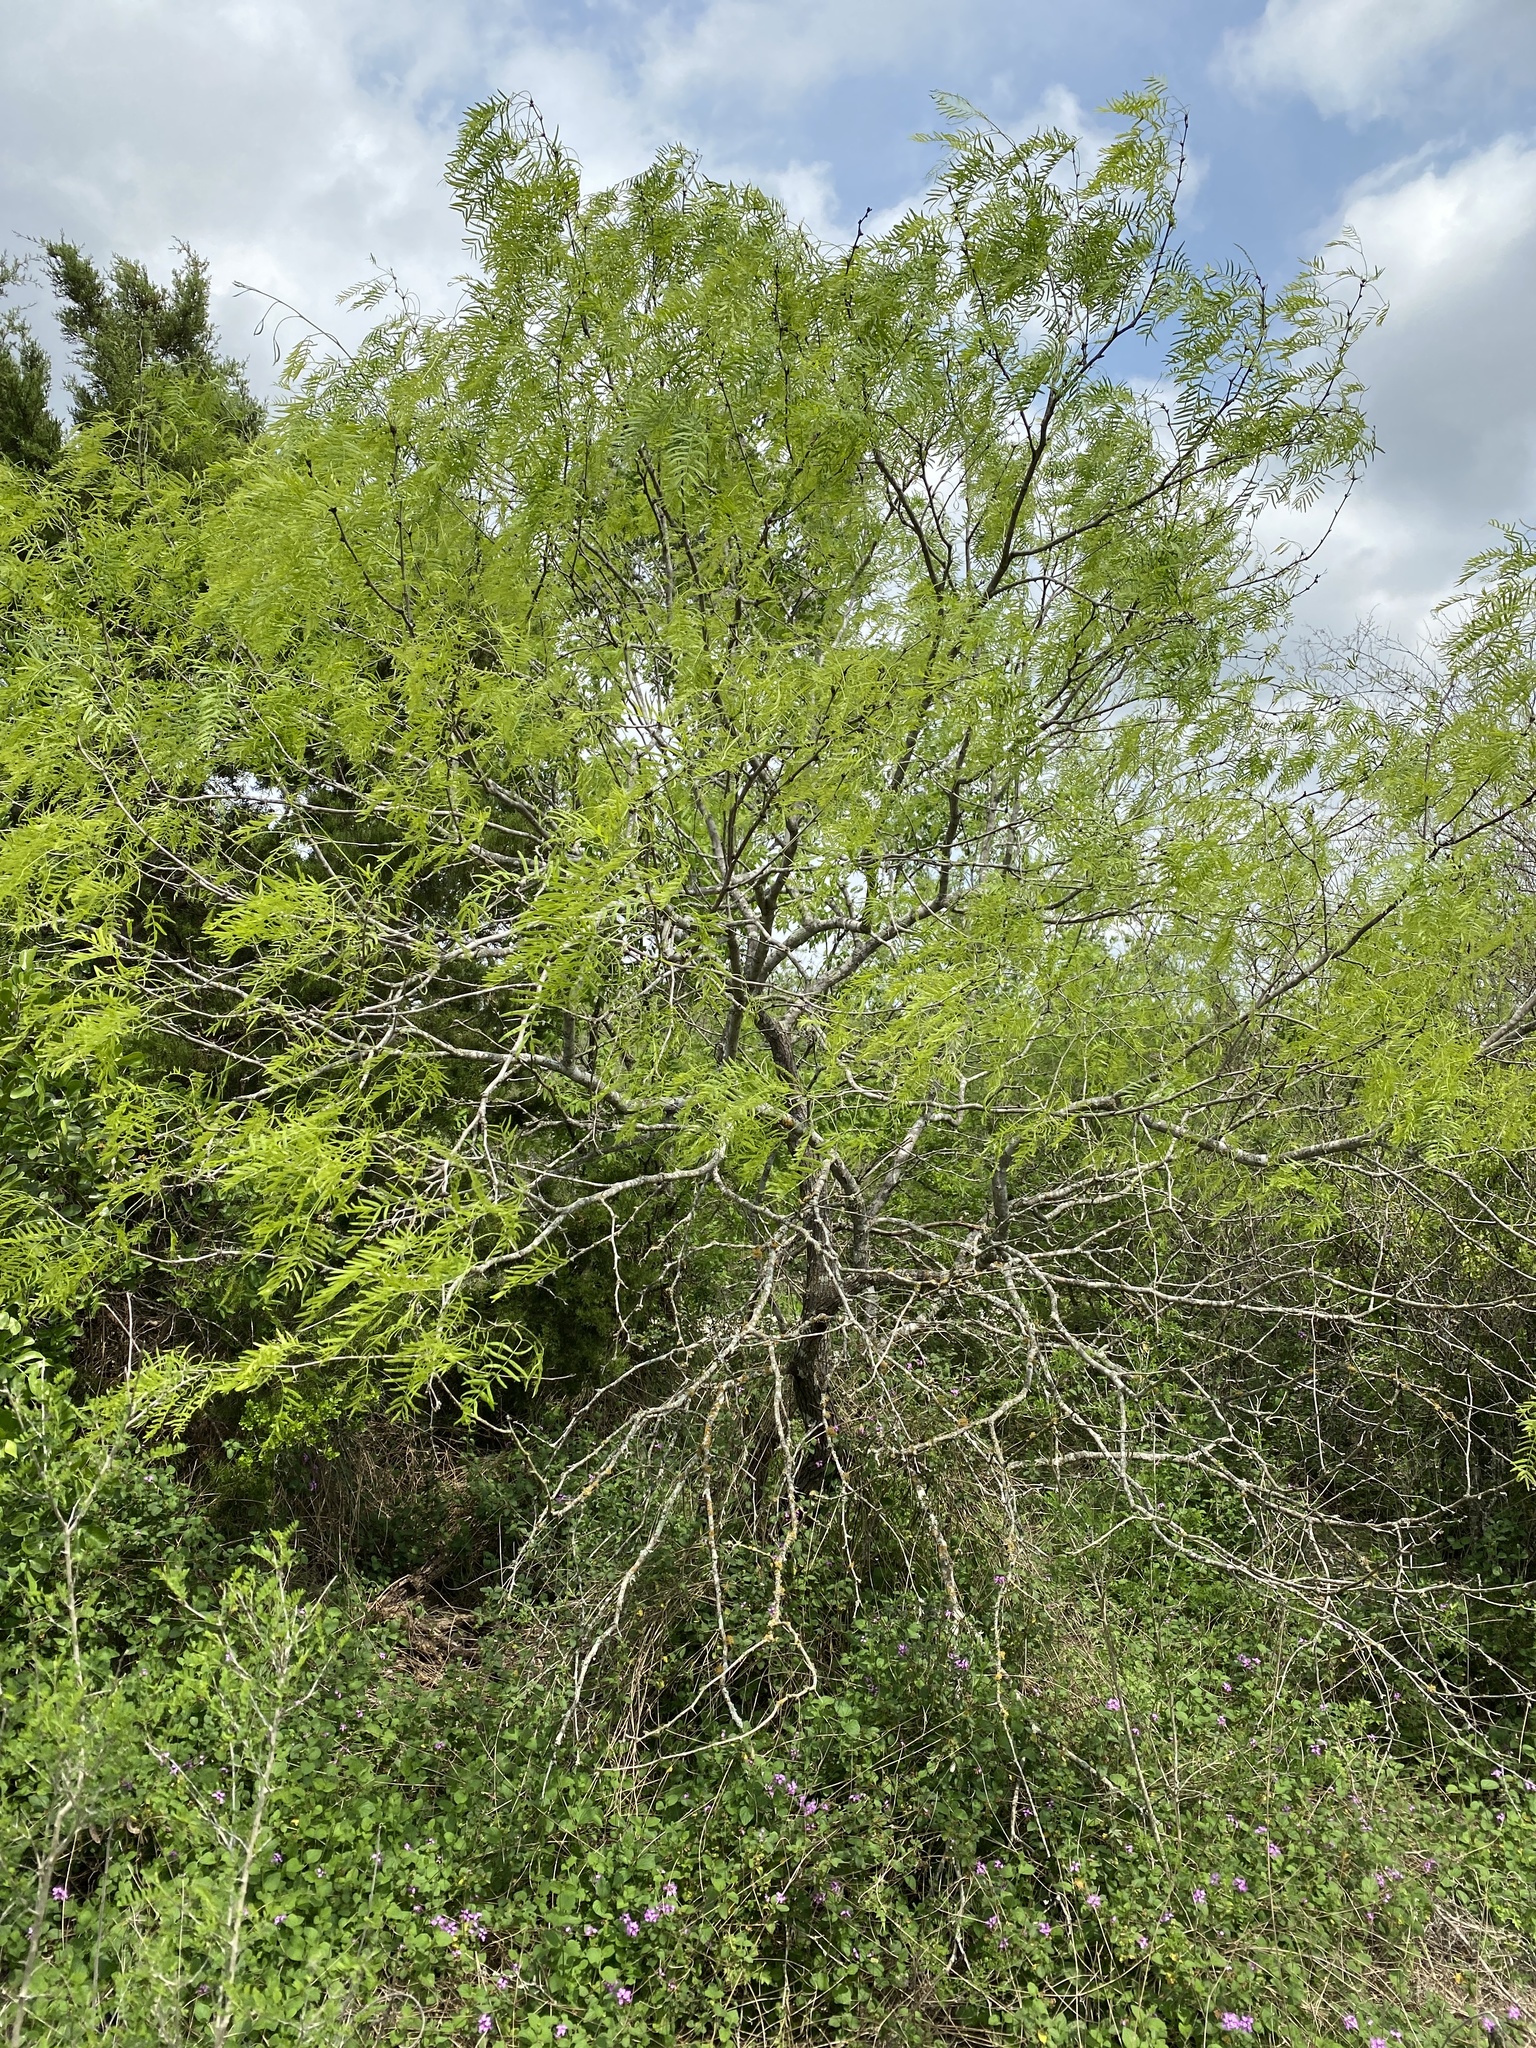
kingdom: Plantae
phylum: Tracheophyta
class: Magnoliopsida
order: Fabales
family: Fabaceae
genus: Prosopis
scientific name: Prosopis glandulosa
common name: Honey mesquite
